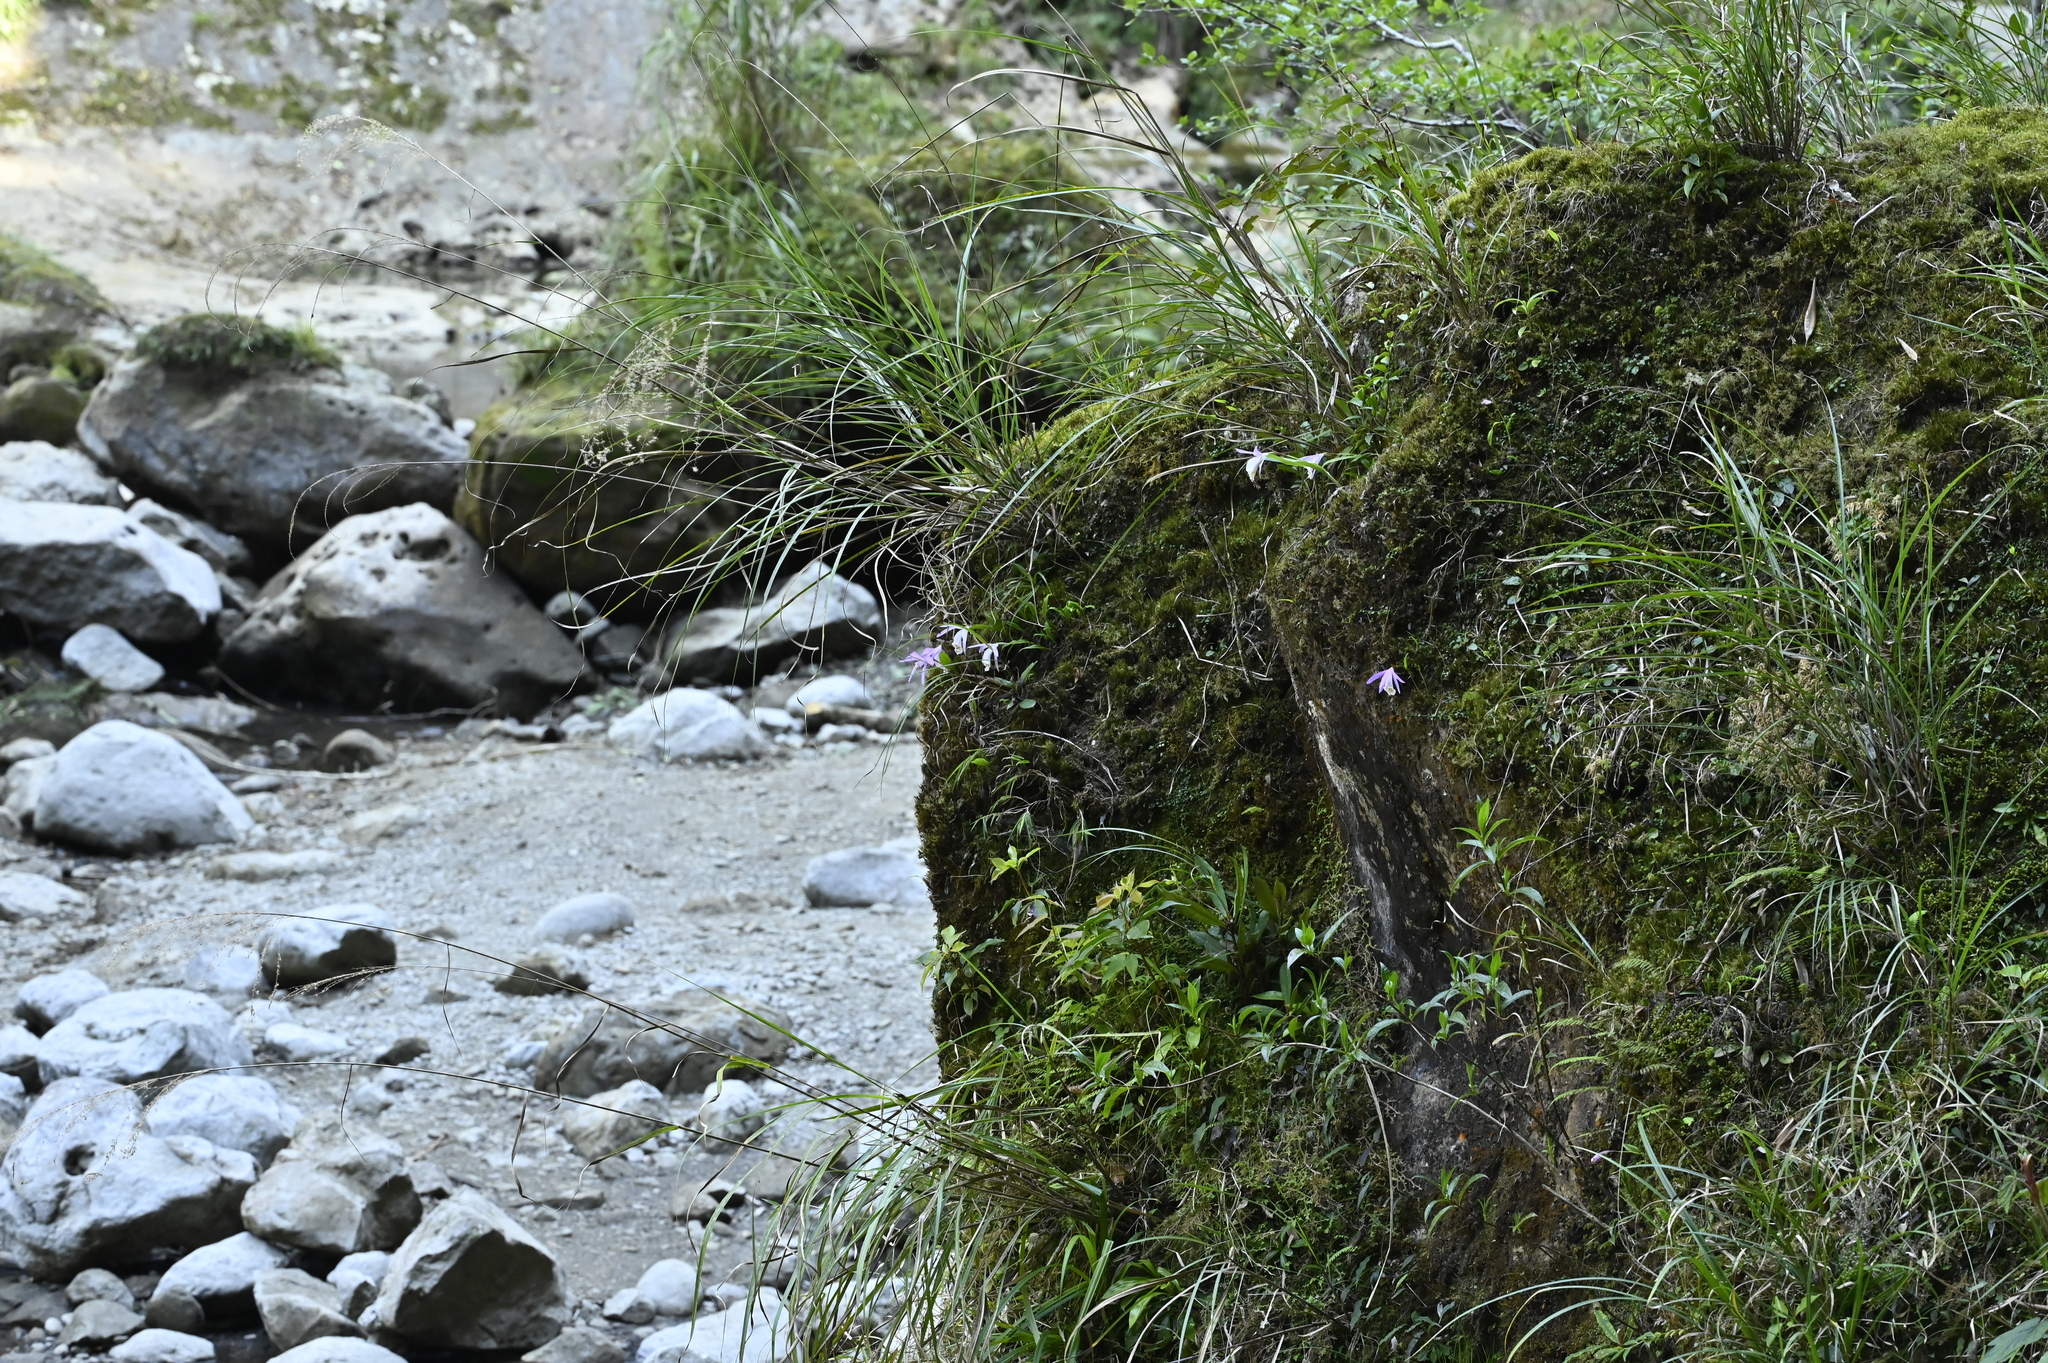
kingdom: Plantae
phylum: Tracheophyta
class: Liliopsida
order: Asparagales
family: Orchidaceae
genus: Pleione
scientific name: Pleione formosana
